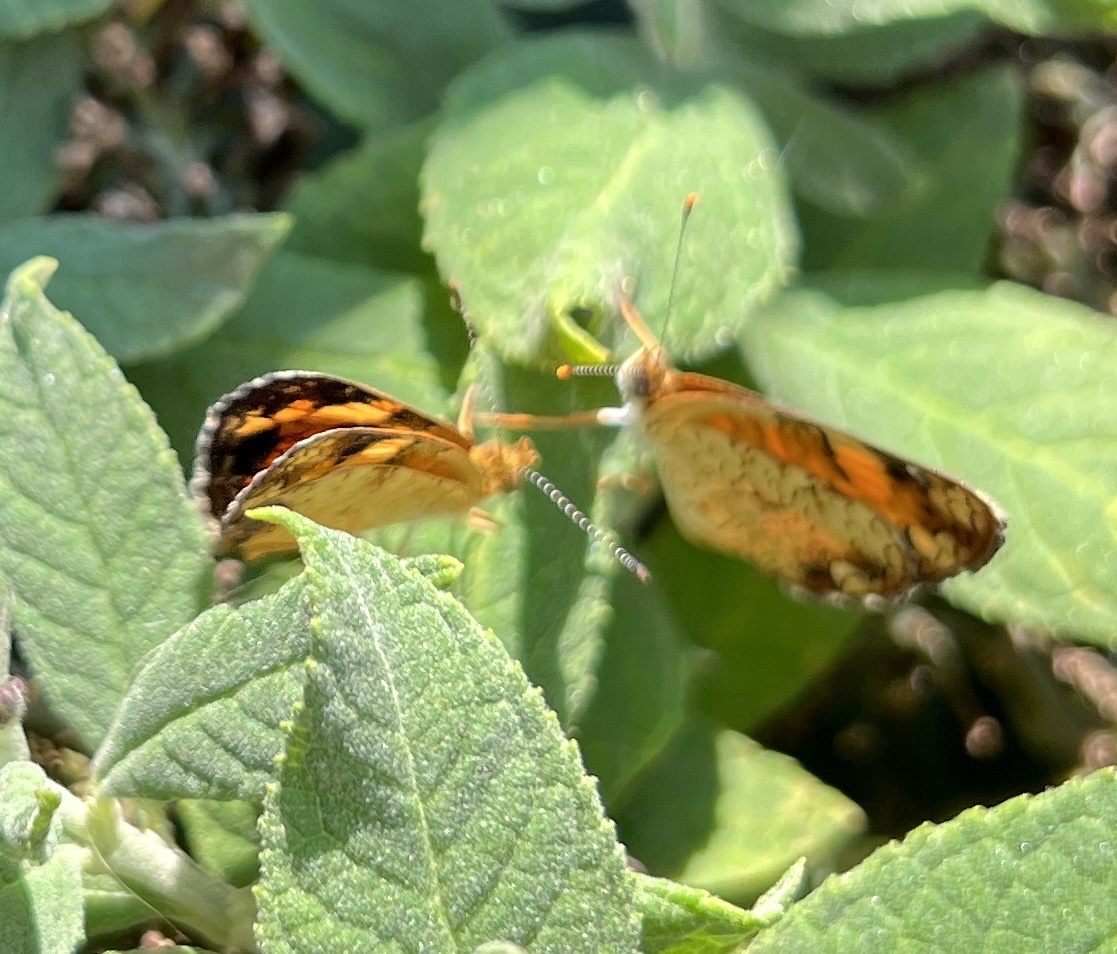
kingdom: Animalia
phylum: Arthropoda
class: Insecta
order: Lepidoptera
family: Nymphalidae
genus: Phyciodes
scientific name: Phyciodes tharos
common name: Pearl crescent
